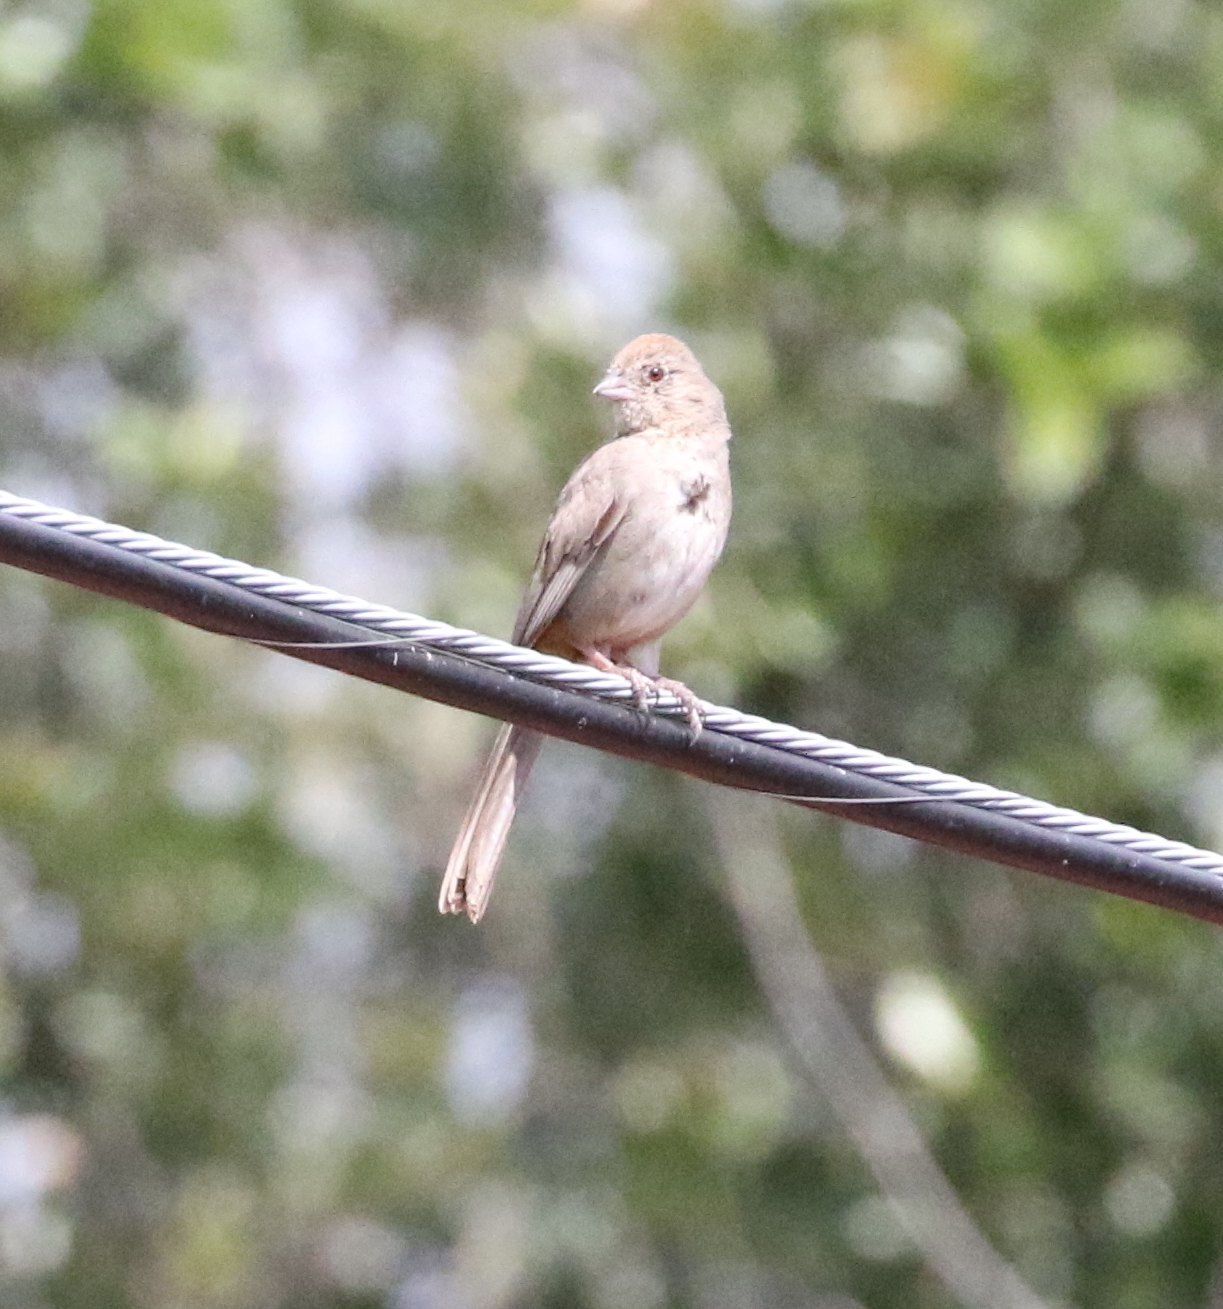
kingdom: Animalia
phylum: Chordata
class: Aves
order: Passeriformes
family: Passerellidae
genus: Melozone
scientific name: Melozone fusca
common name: Canyon towhee
